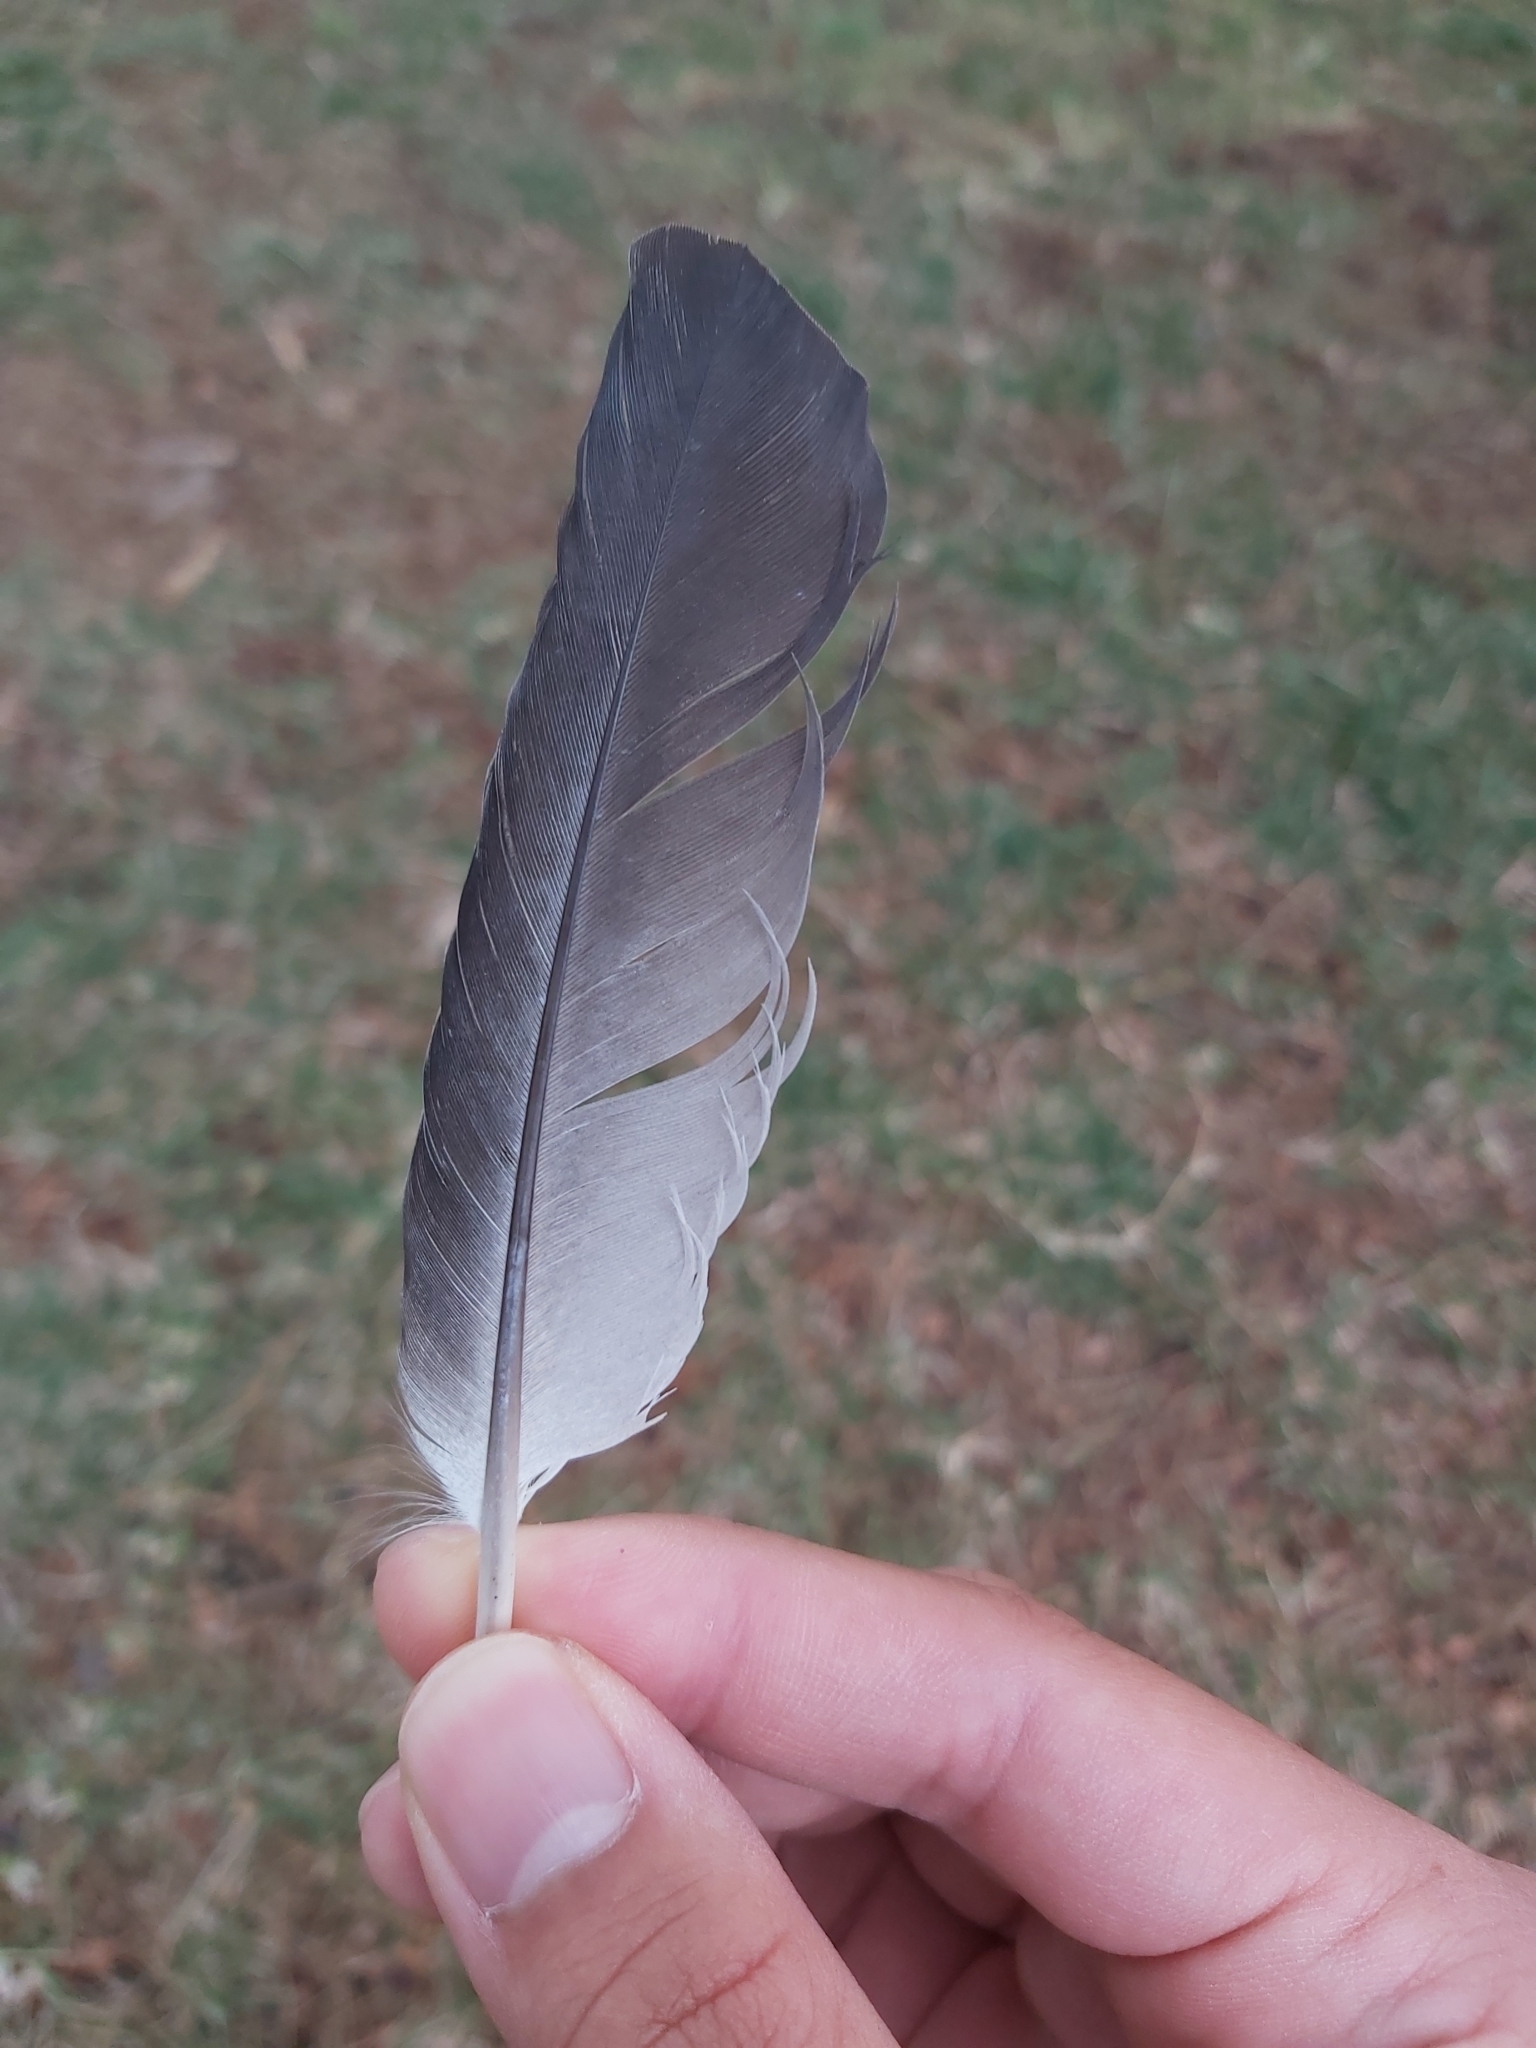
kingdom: Animalia
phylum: Chordata
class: Aves
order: Columbiformes
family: Columbidae
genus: Columba
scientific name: Columba livia
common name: Rock pigeon
